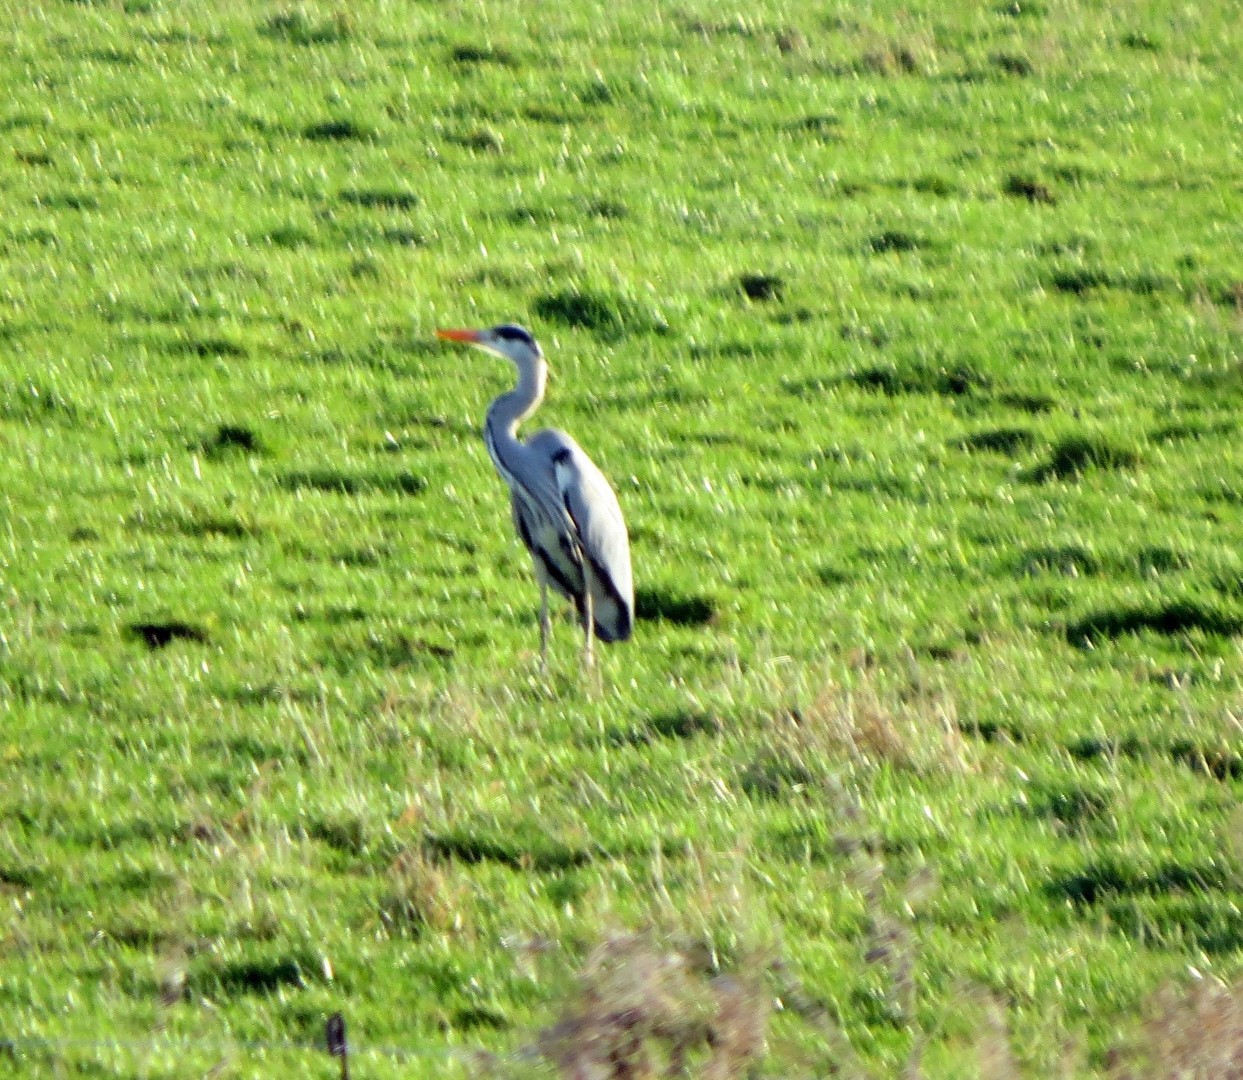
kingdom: Animalia
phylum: Chordata
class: Aves
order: Pelecaniformes
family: Ardeidae
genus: Ardea
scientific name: Ardea cinerea
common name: Grey heron
